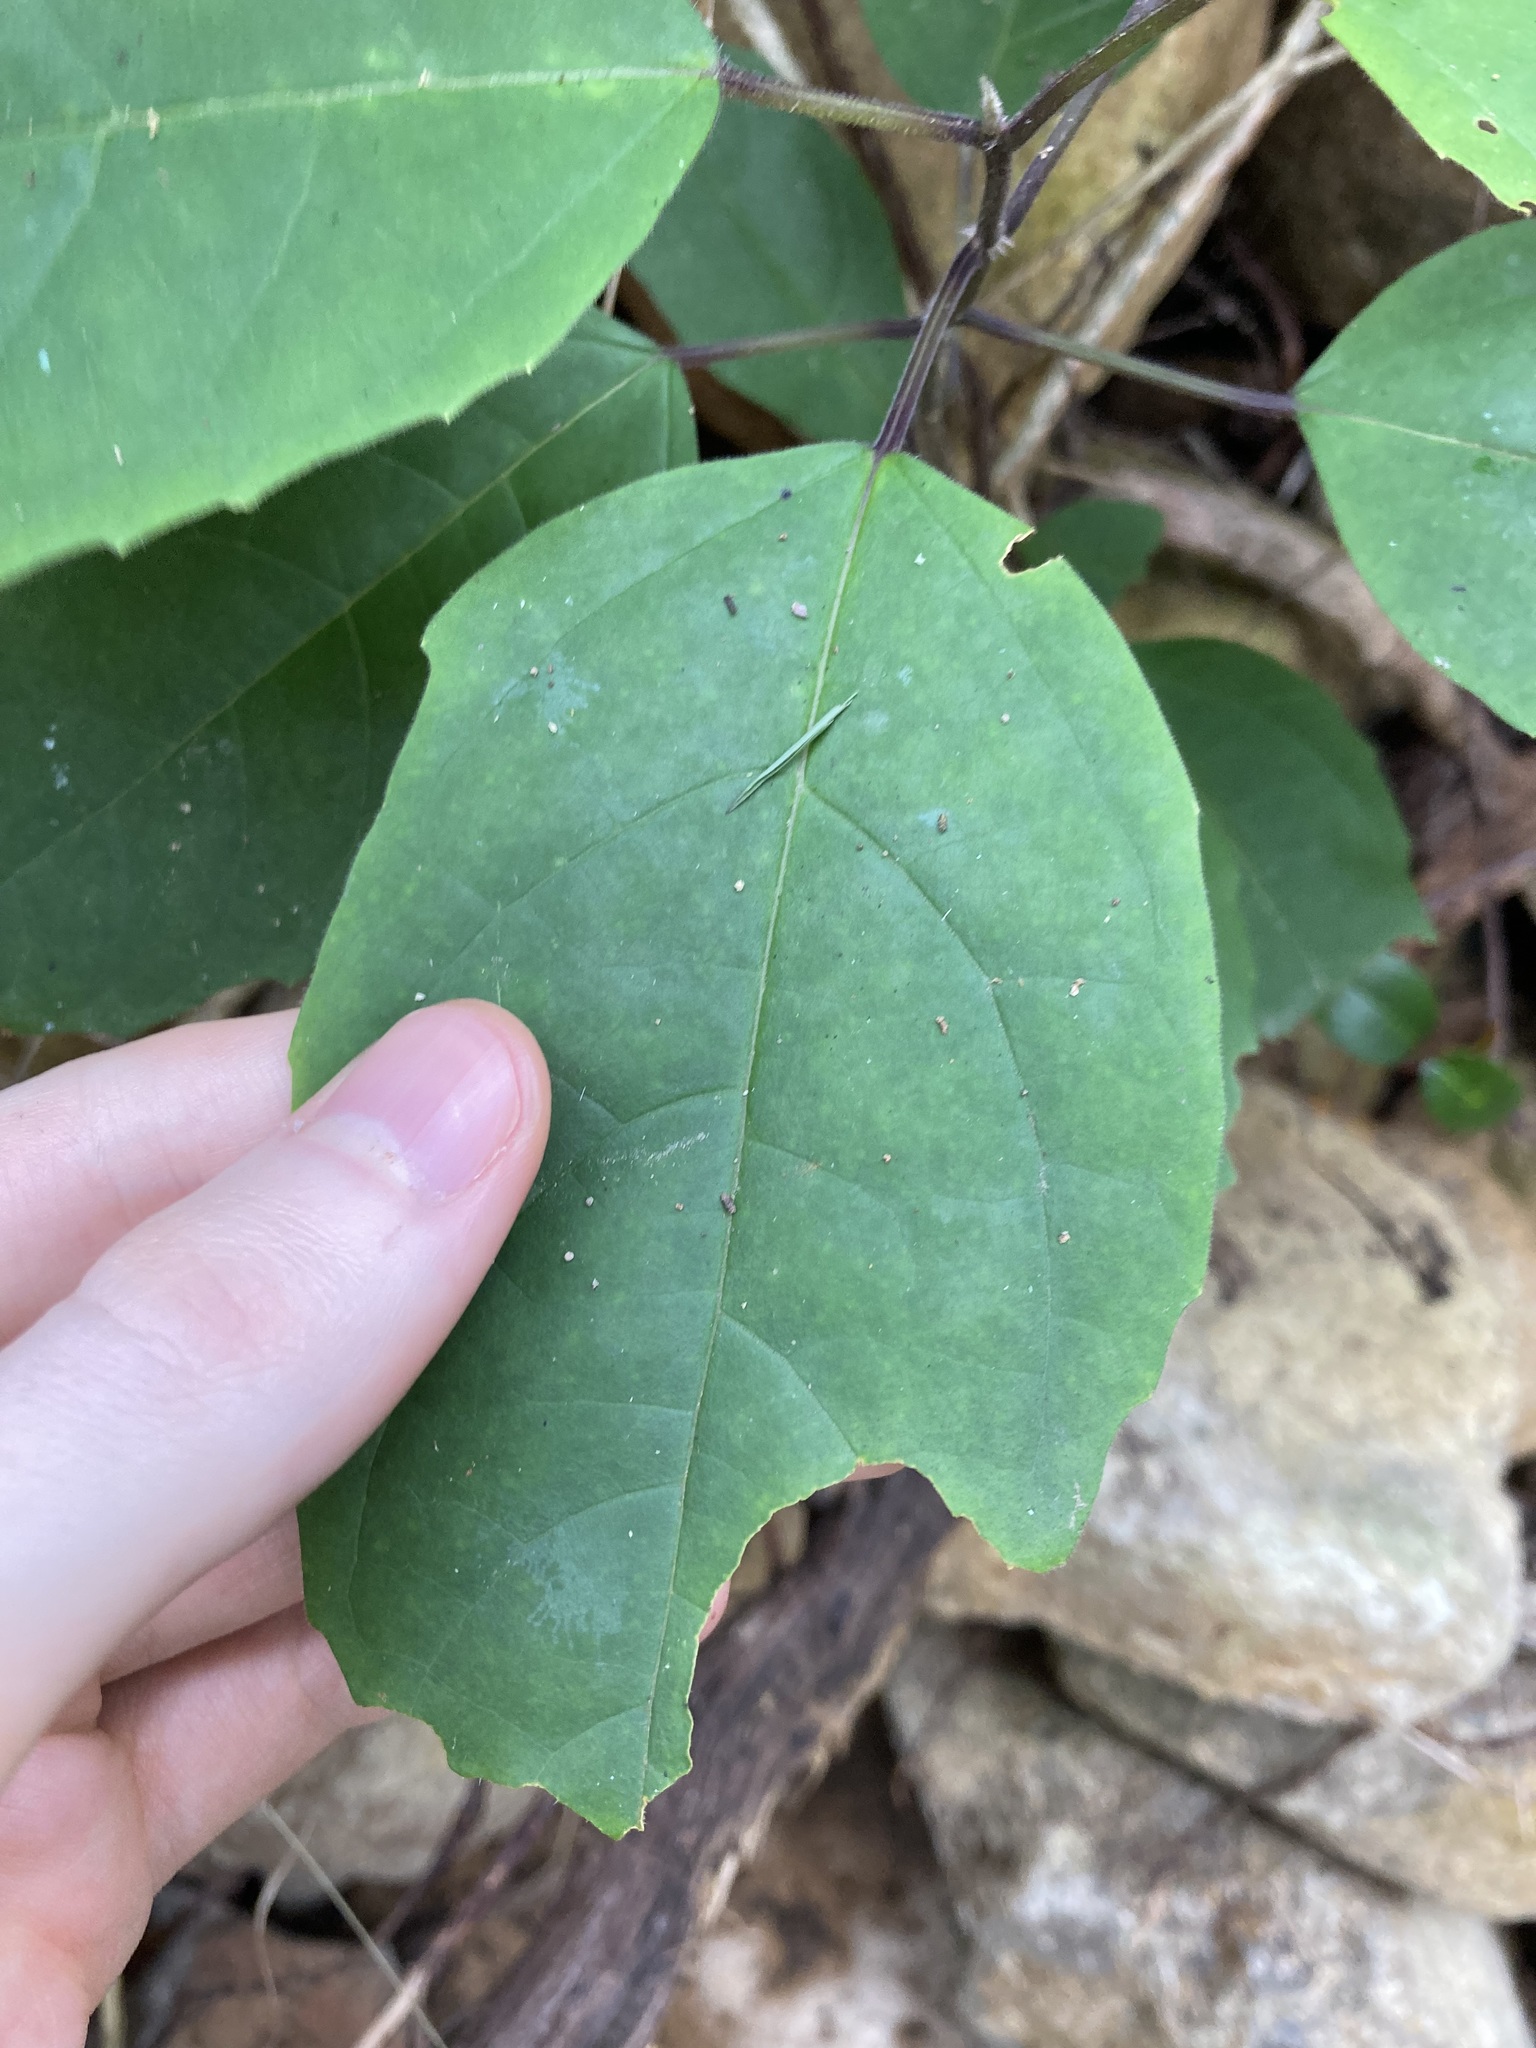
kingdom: Plantae
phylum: Tracheophyta
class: Magnoliopsida
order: Lamiales
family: Lamiaceae
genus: Clerodendrum
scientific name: Clerodendrum tomentosum
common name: Hairy clerodendrum
